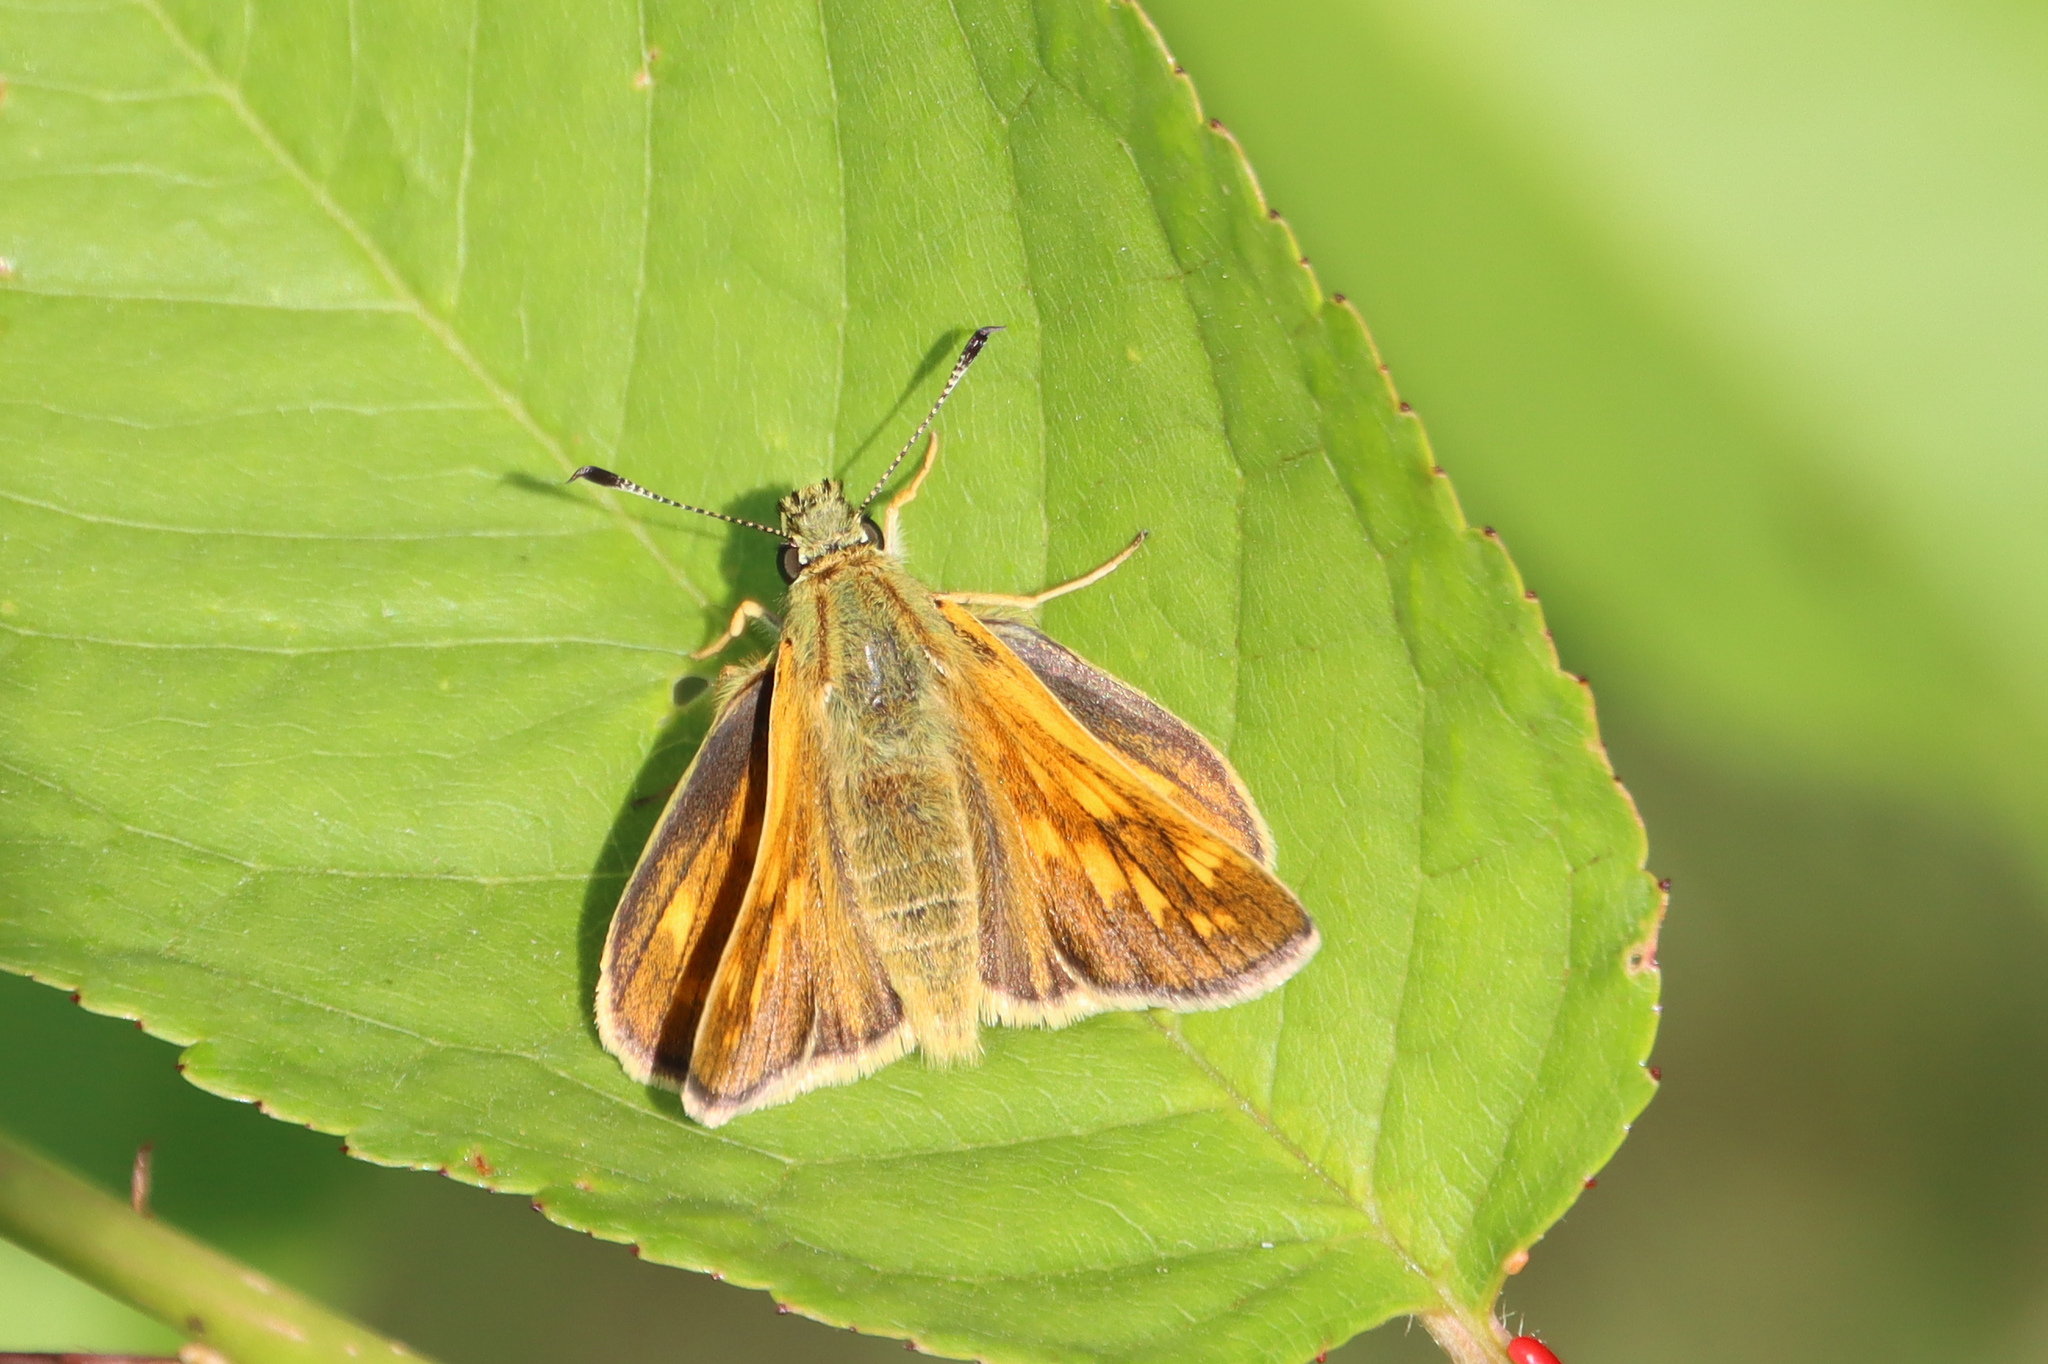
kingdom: Animalia
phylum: Arthropoda
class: Insecta
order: Lepidoptera
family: Hesperiidae
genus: Ochlodes
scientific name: Ochlodes venata
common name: Large skipper
